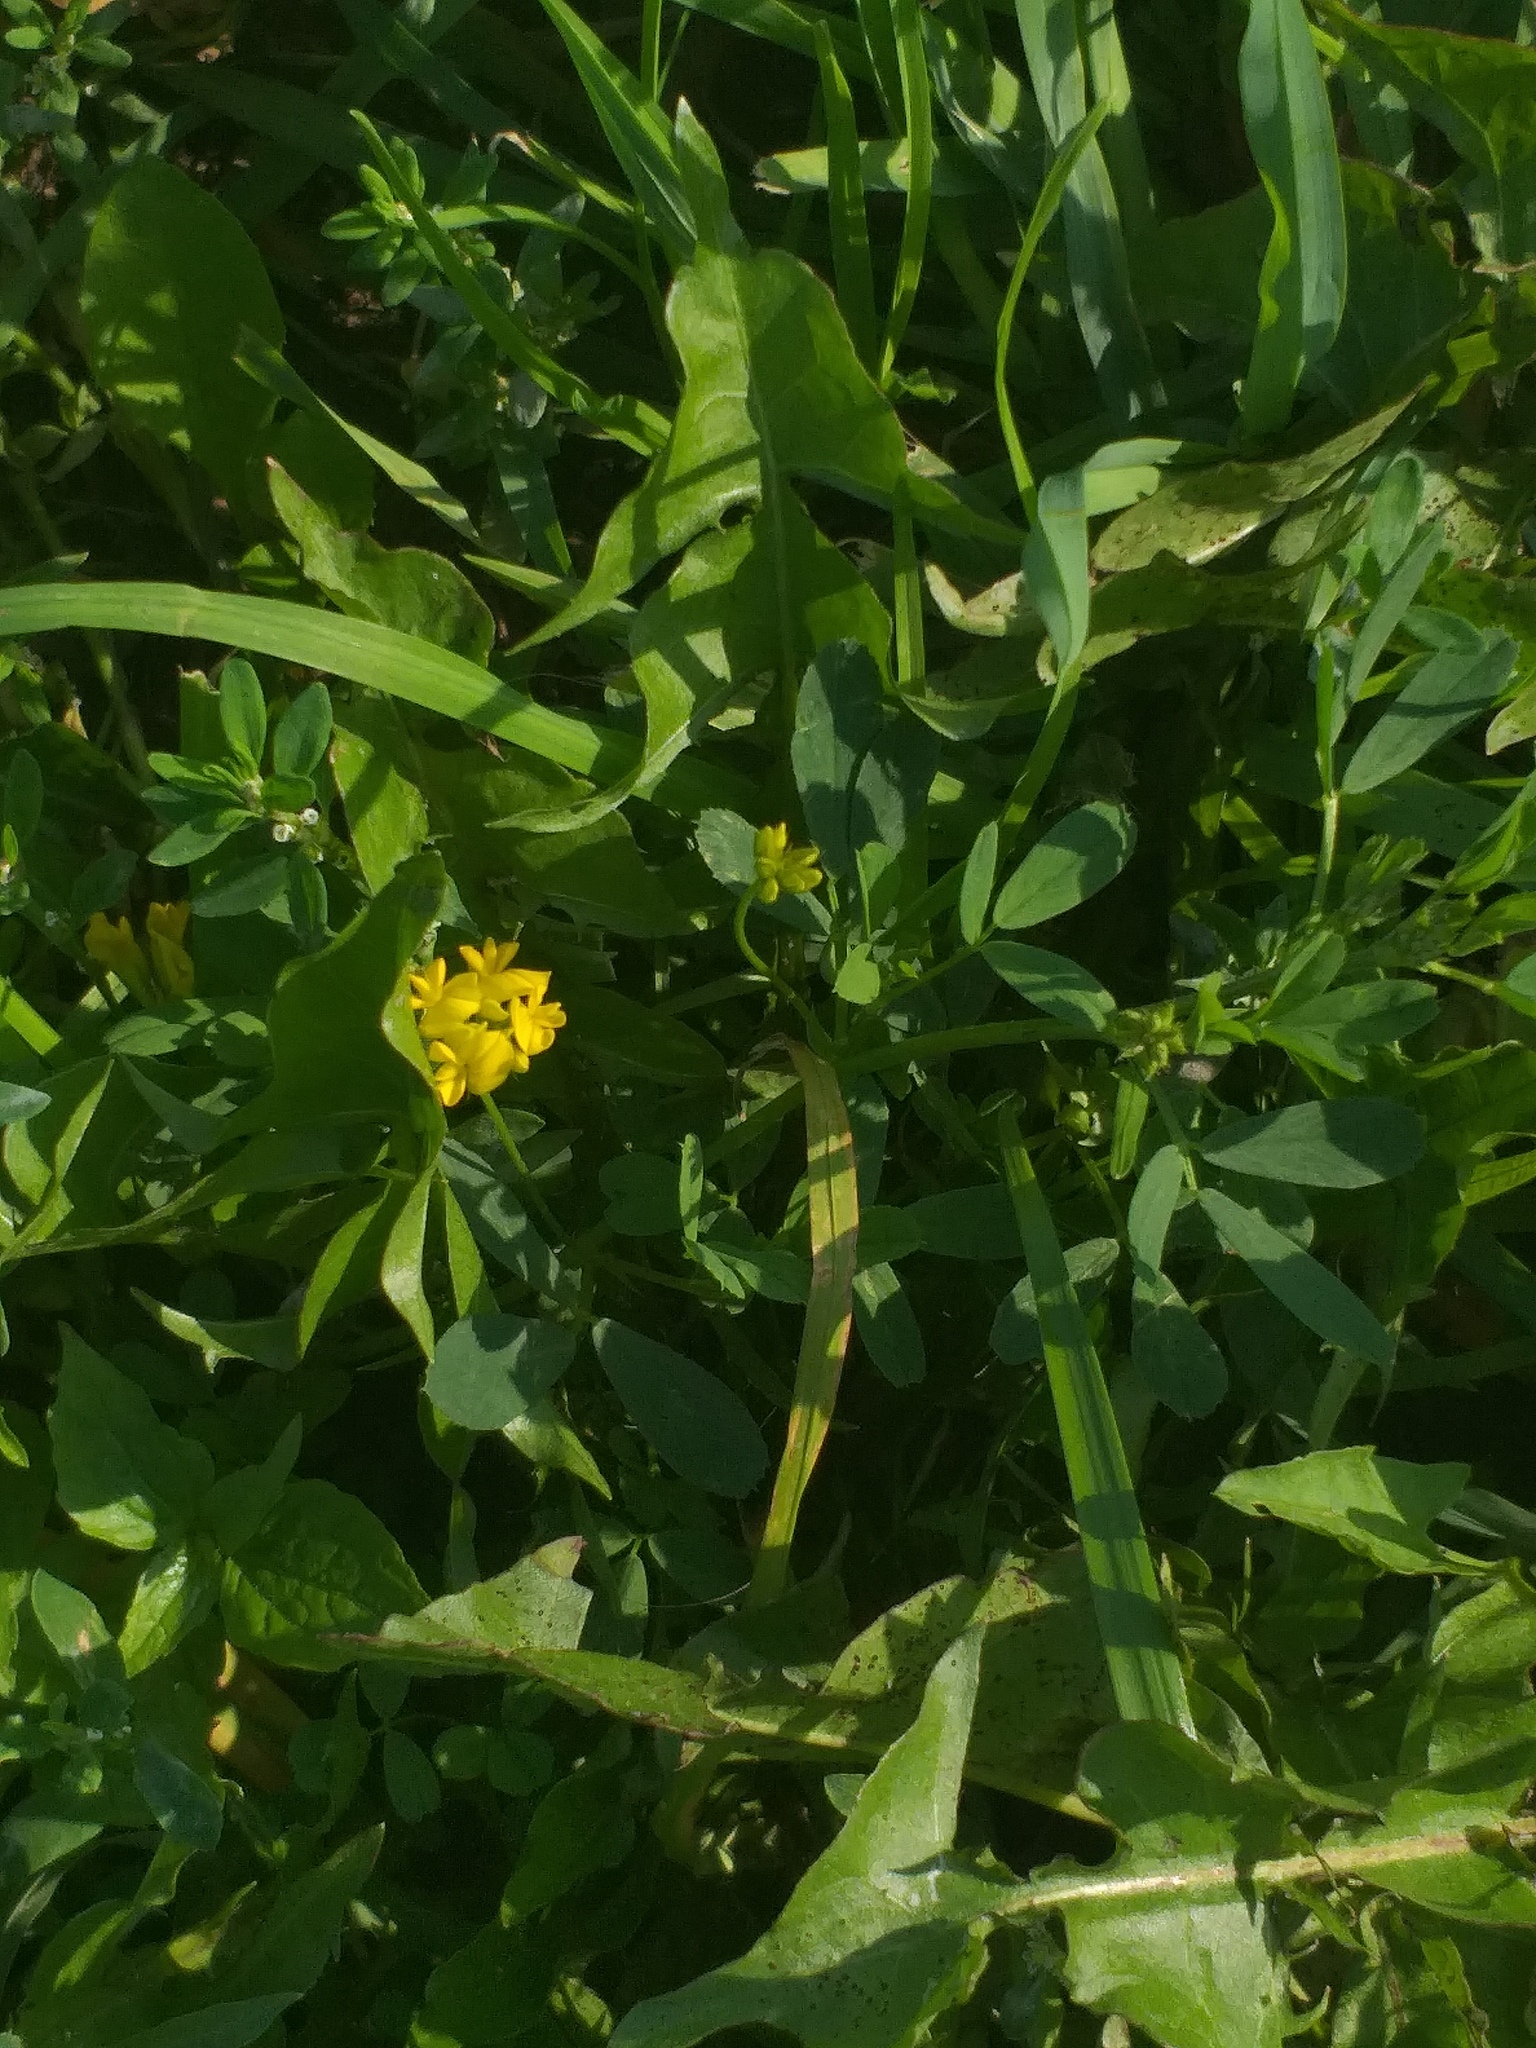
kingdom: Plantae
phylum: Tracheophyta
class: Magnoliopsida
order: Fabales
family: Fabaceae
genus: Medicago
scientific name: Medicago falcata
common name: Sickle medick
